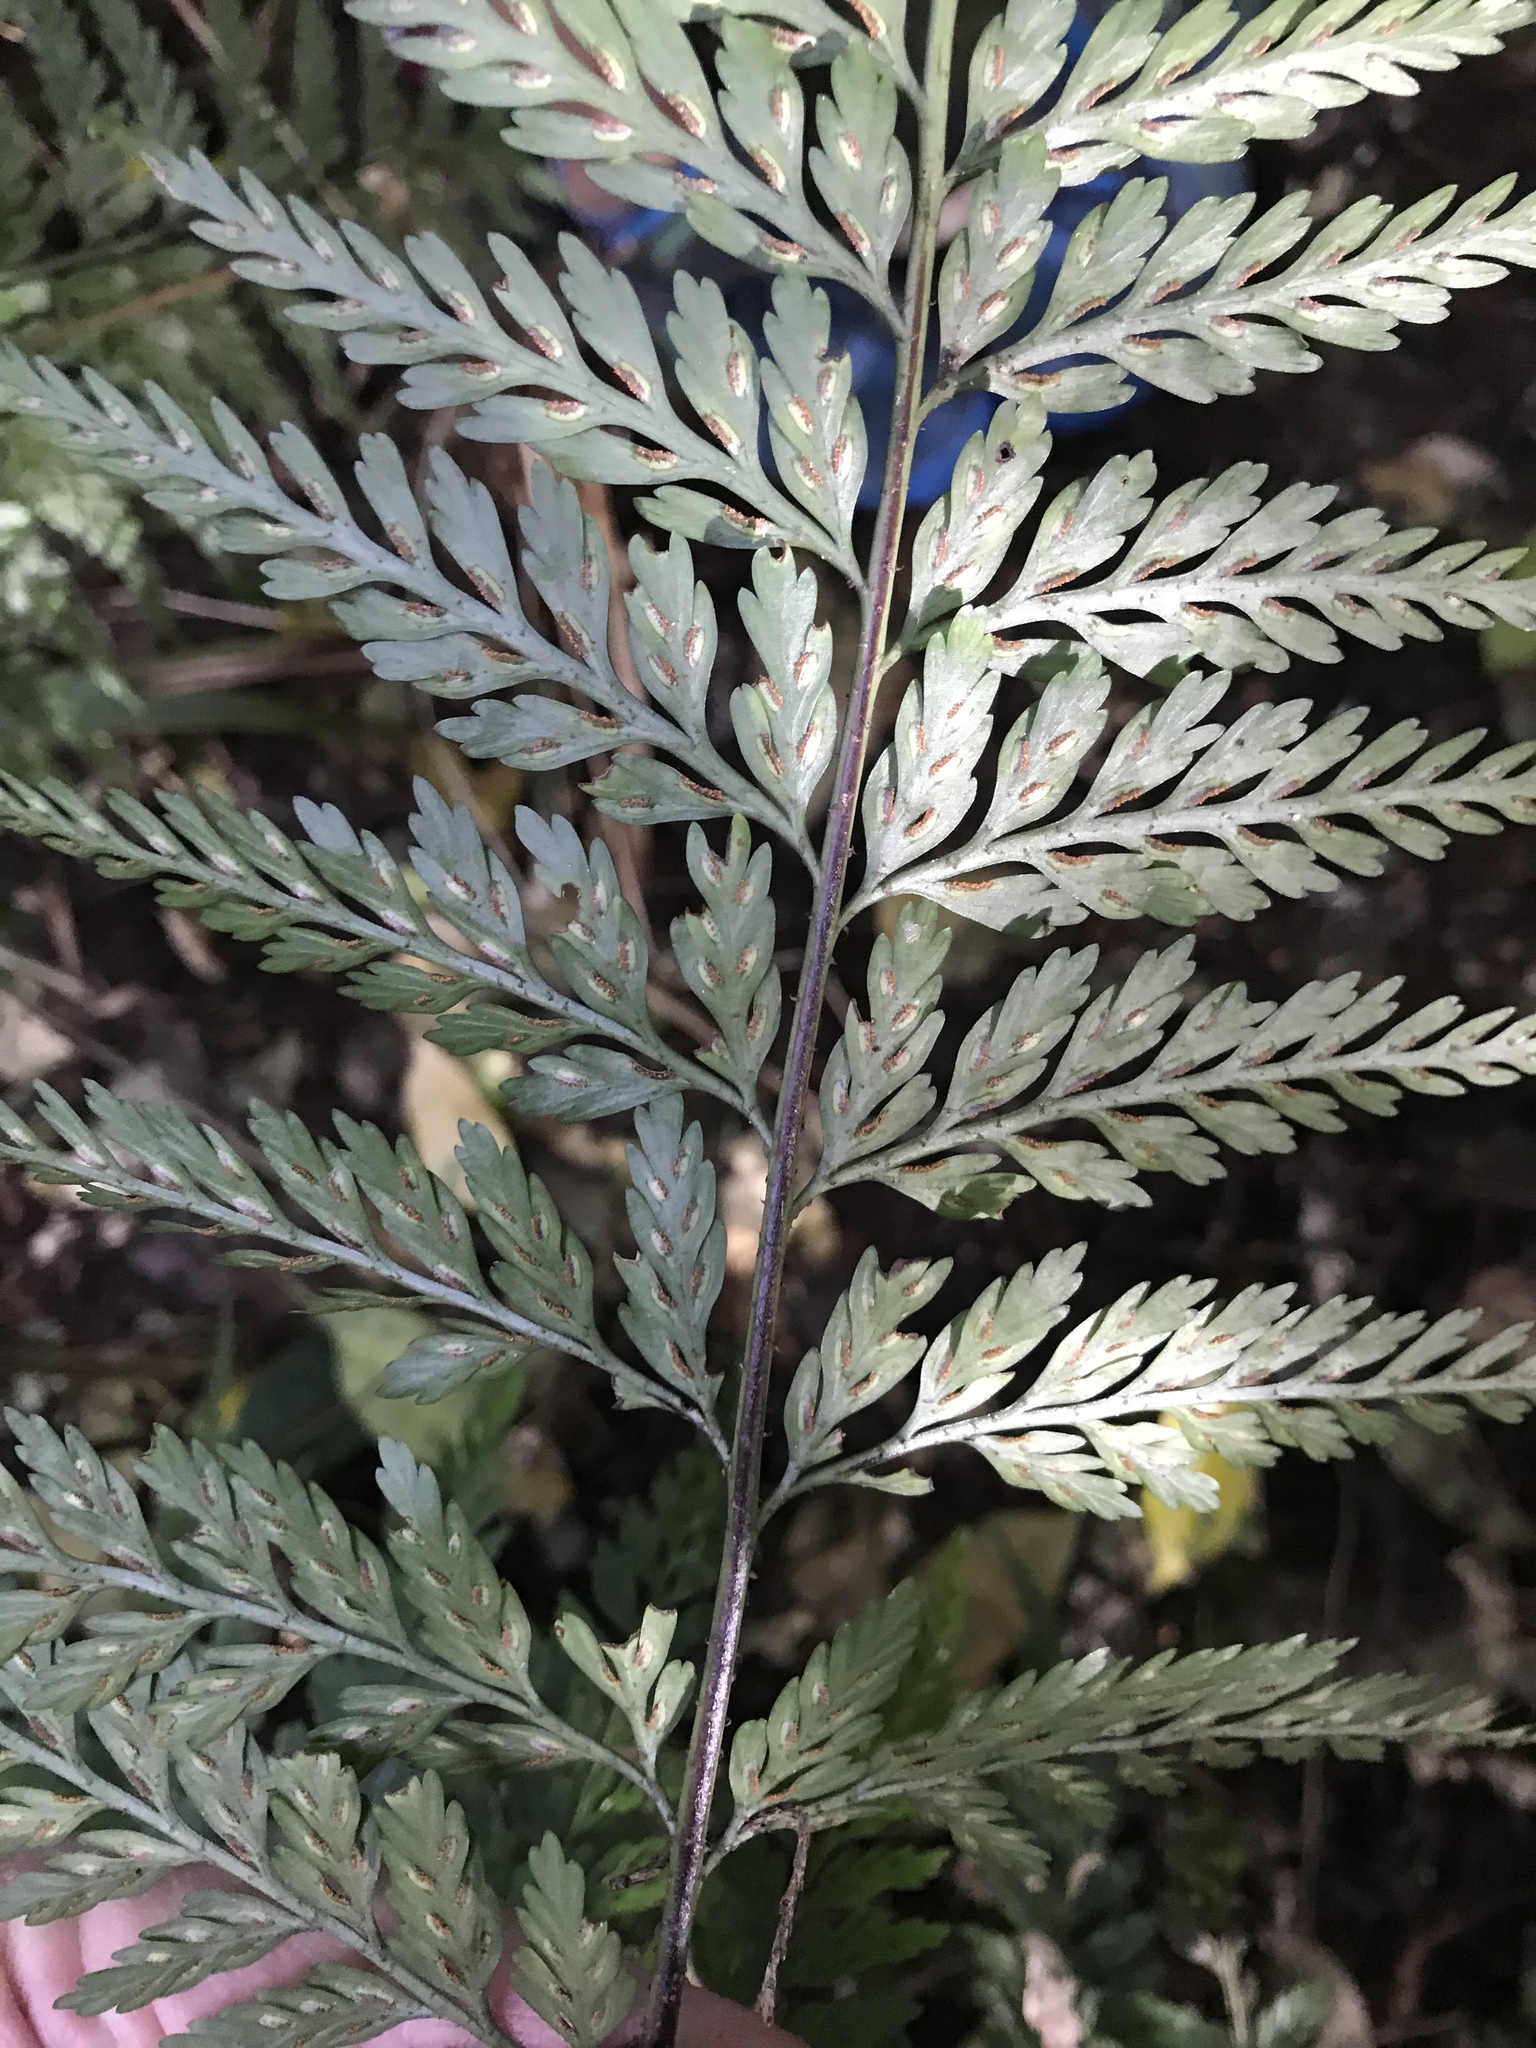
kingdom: Plantae
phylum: Tracheophyta
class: Polypodiopsida
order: Polypodiales
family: Aspleniaceae
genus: Asplenium
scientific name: Asplenium
